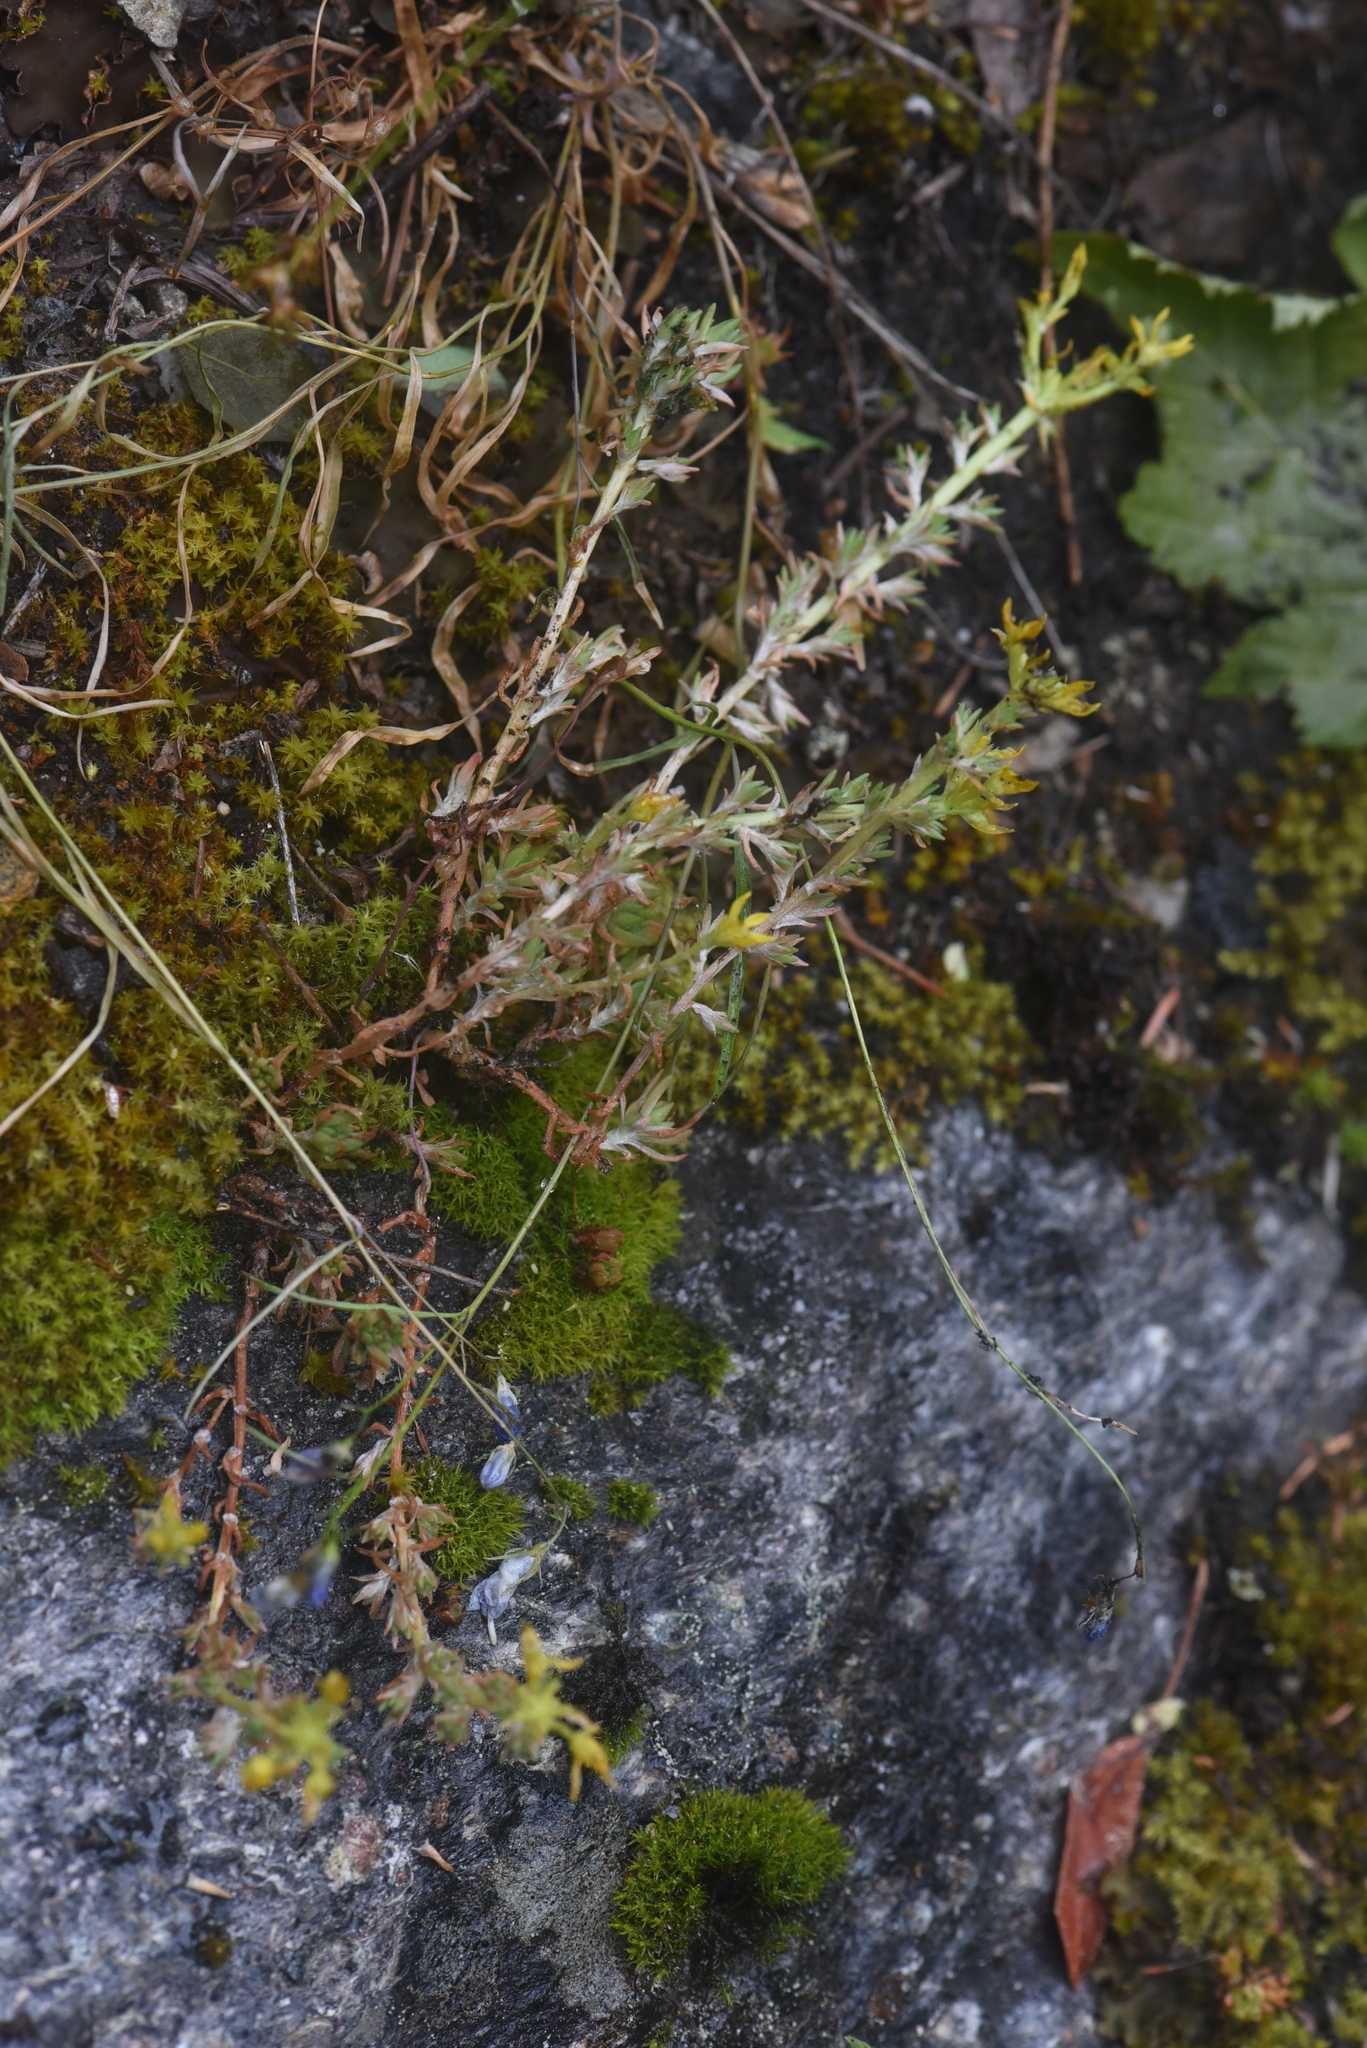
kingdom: Plantae
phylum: Tracheophyta
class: Magnoliopsida
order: Saxifragales
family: Crassulaceae
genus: Sedum
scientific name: Sedum lanceolatum
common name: Common stonecrop
